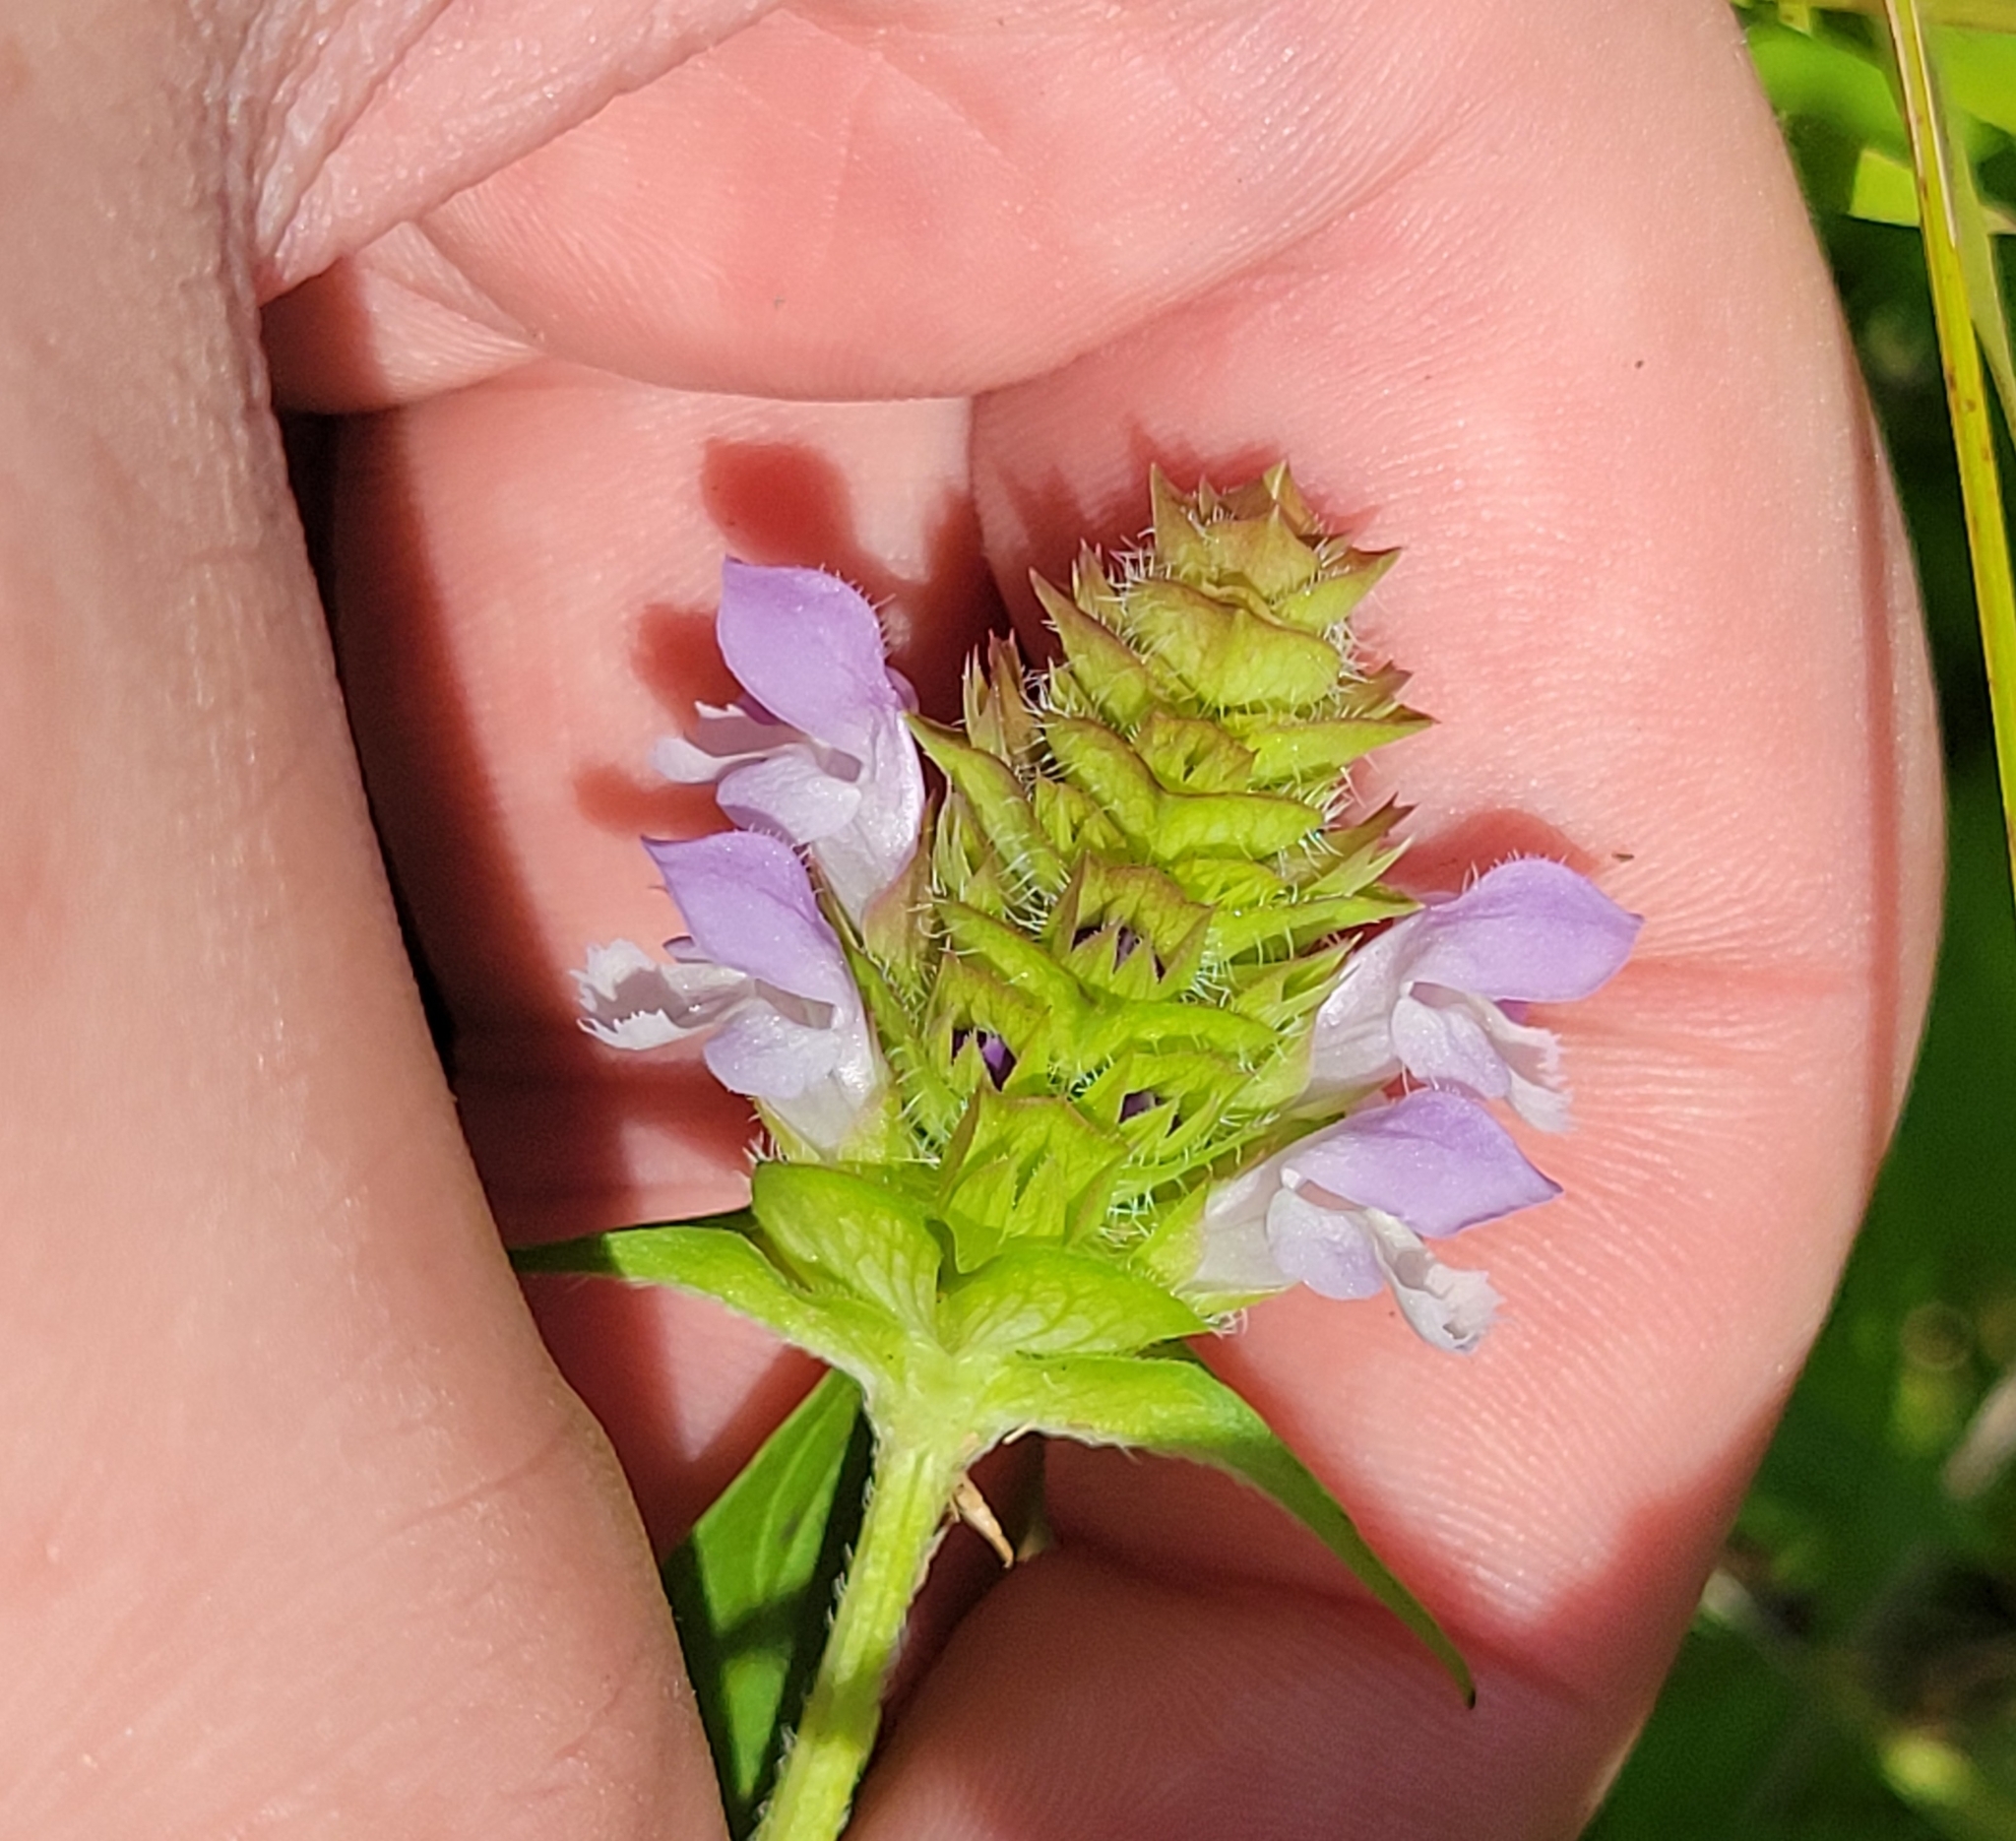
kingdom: Plantae
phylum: Tracheophyta
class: Magnoliopsida
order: Lamiales
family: Lamiaceae
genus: Prunella
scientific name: Prunella vulgaris
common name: Heal-all
